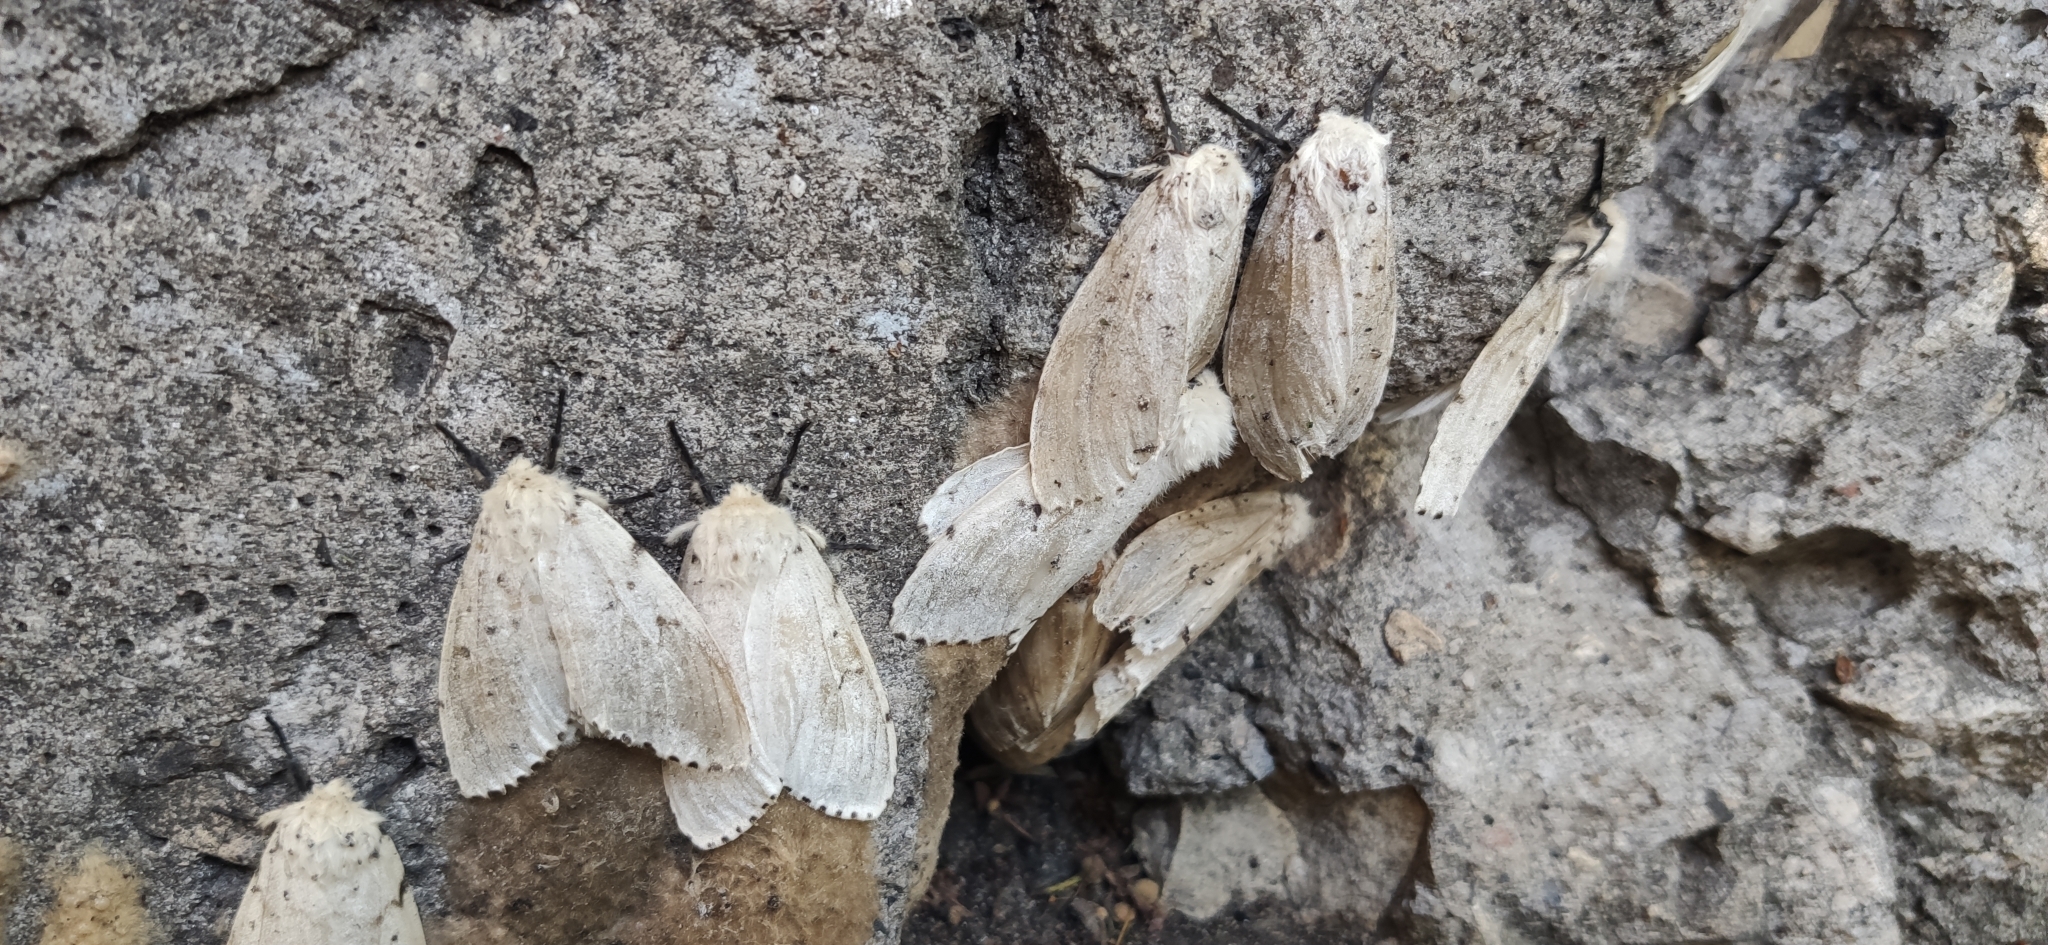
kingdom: Animalia
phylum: Arthropoda
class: Insecta
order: Lepidoptera
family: Erebidae
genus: Lymantria
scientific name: Lymantria dispar
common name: Gypsy moth
